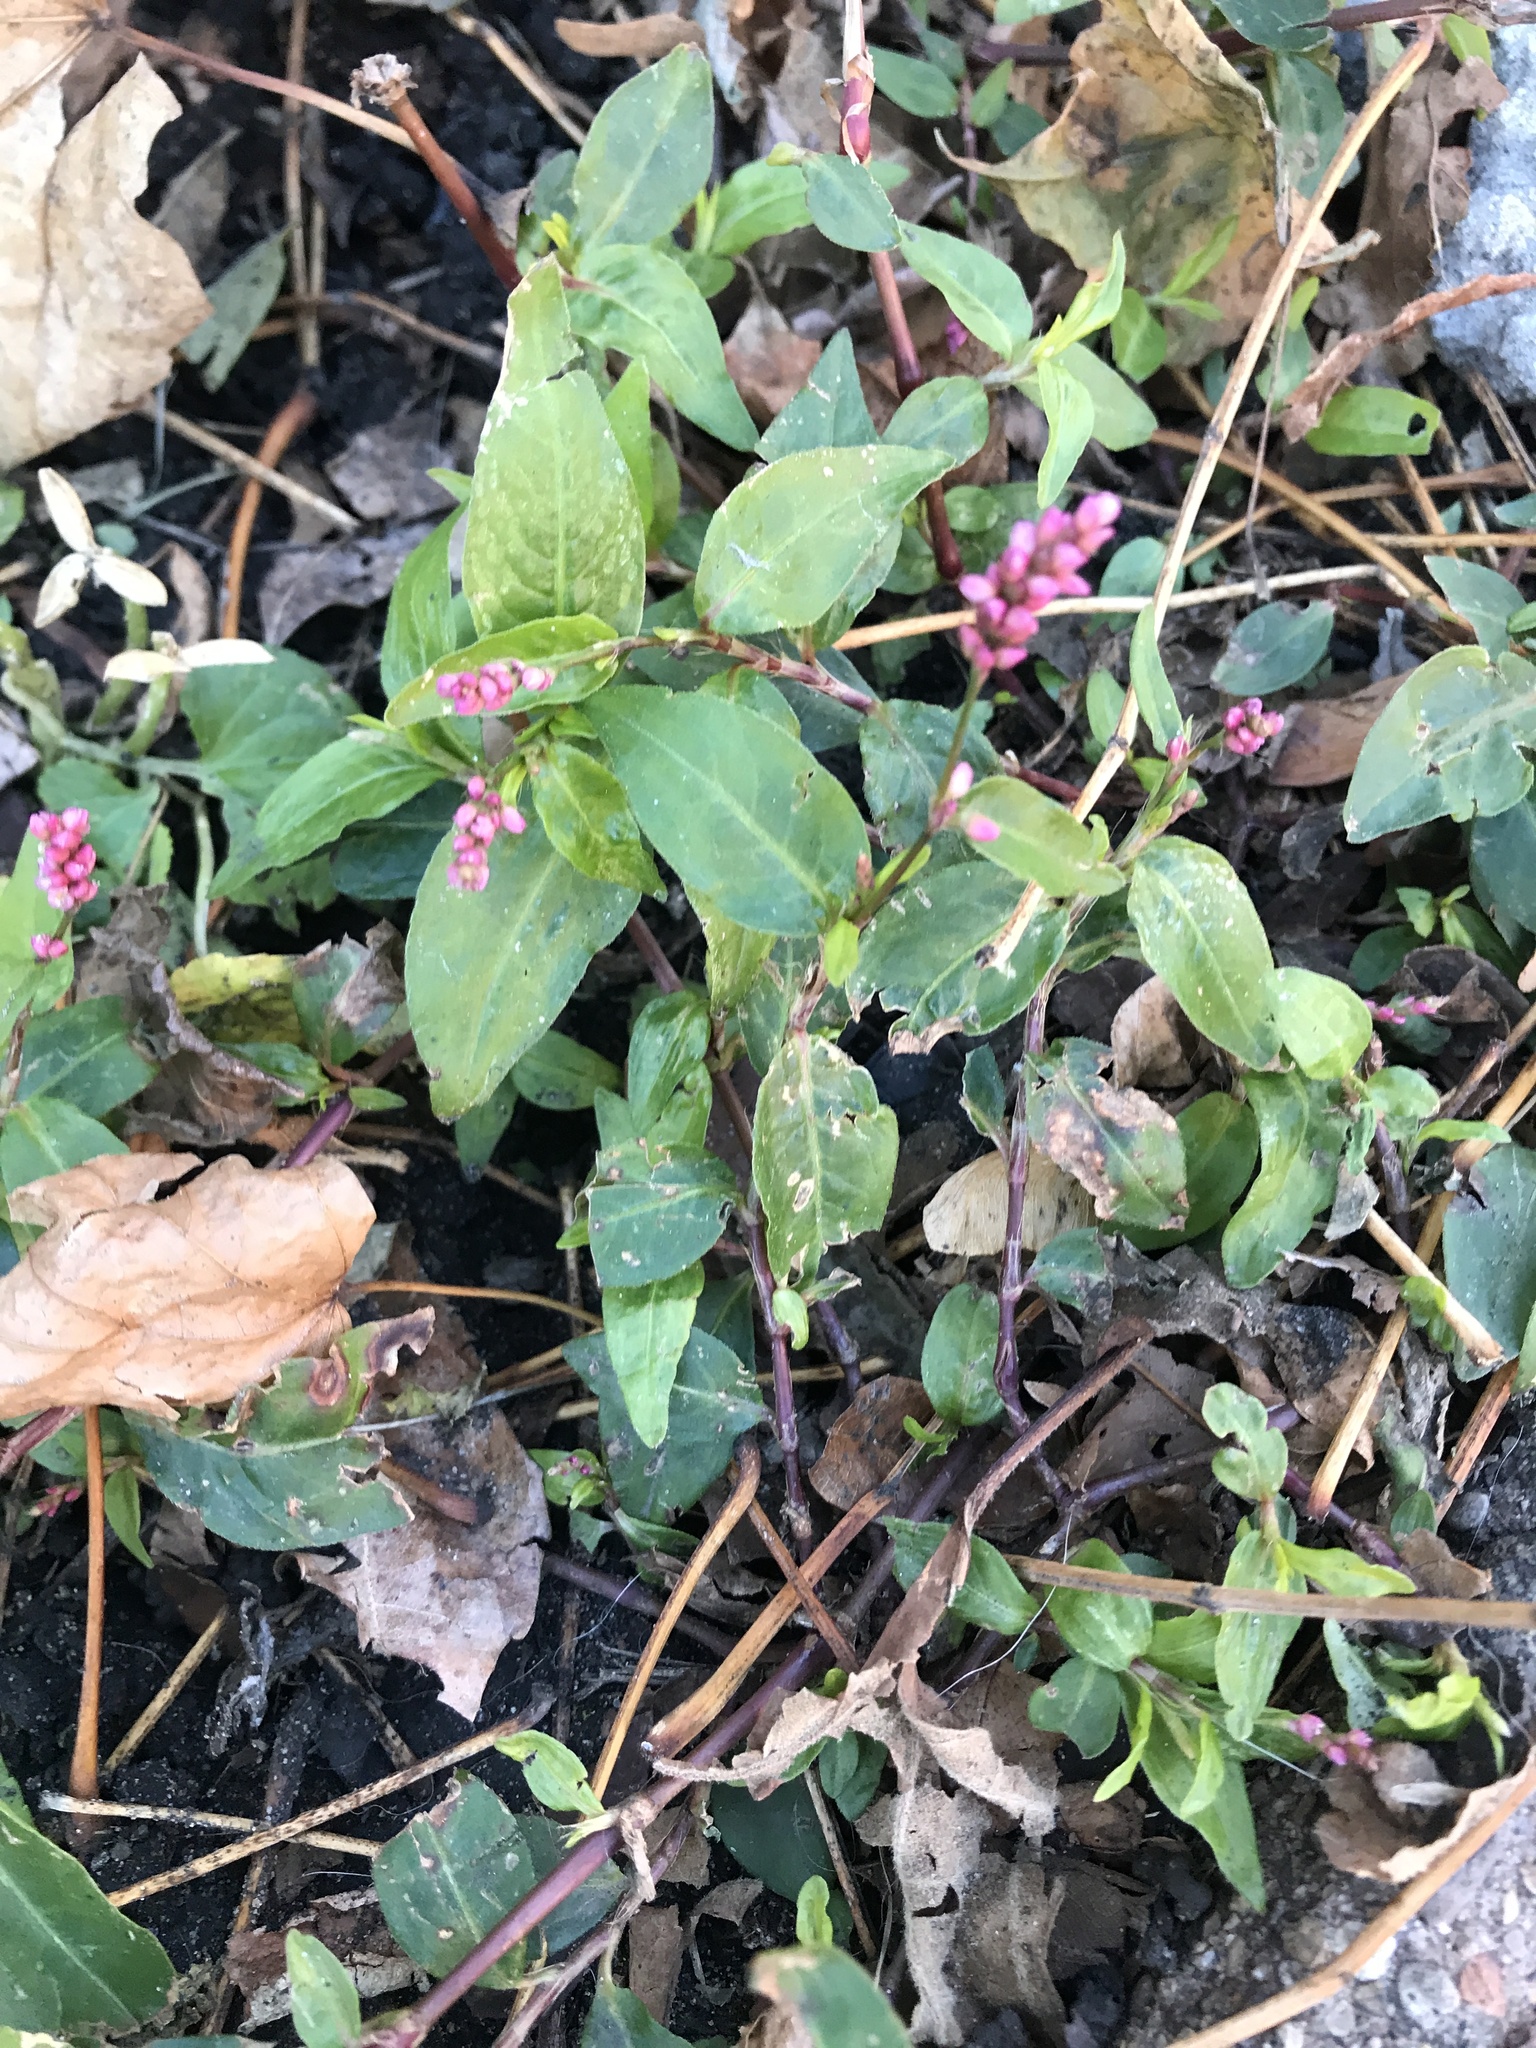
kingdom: Plantae
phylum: Tracheophyta
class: Magnoliopsida
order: Caryophyllales
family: Polygonaceae
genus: Persicaria
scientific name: Persicaria longiseta
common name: Bristly lady's-thumb
